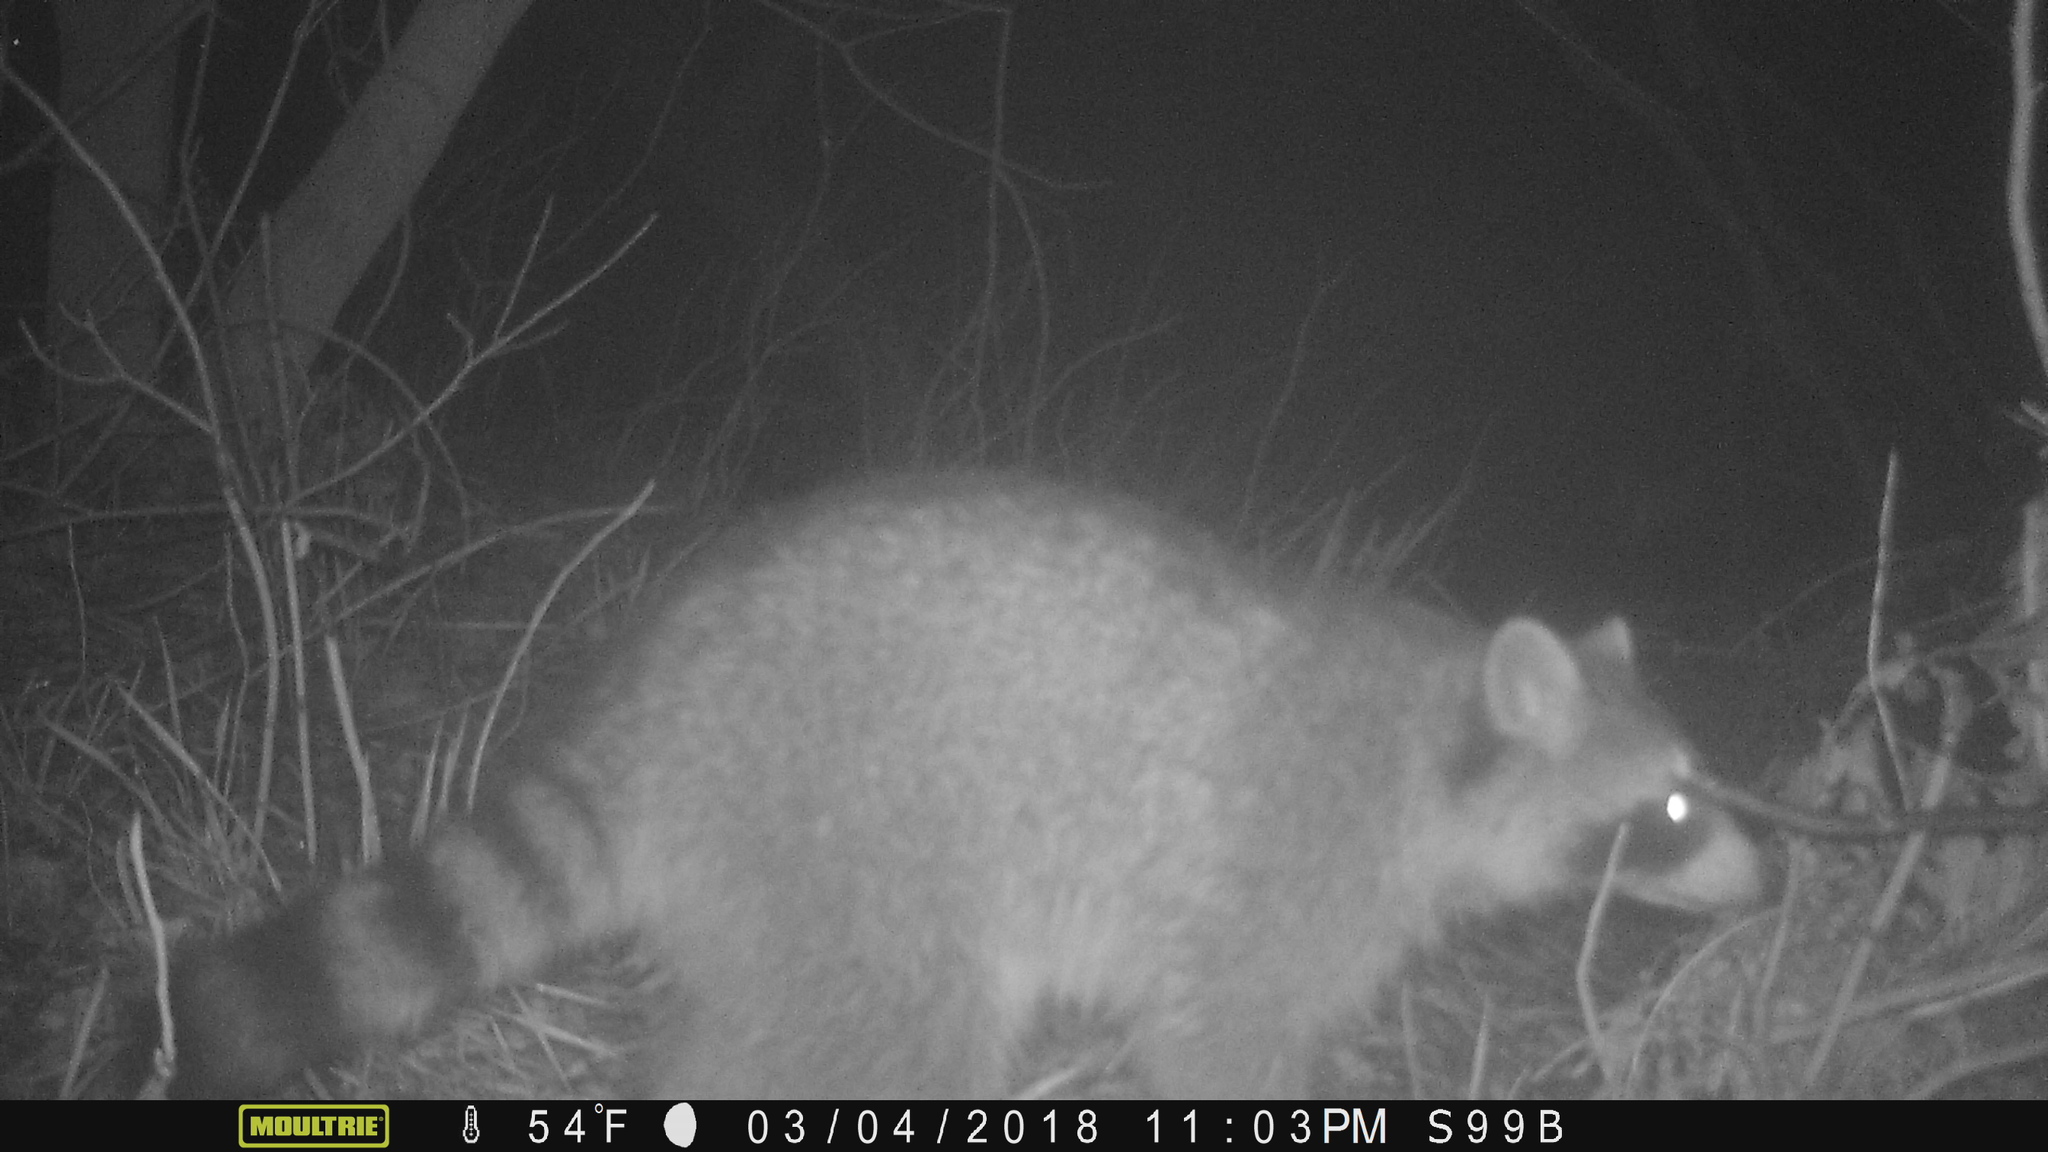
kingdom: Animalia
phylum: Chordata
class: Mammalia
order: Carnivora
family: Procyonidae
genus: Procyon
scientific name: Procyon lotor
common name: Raccoon
